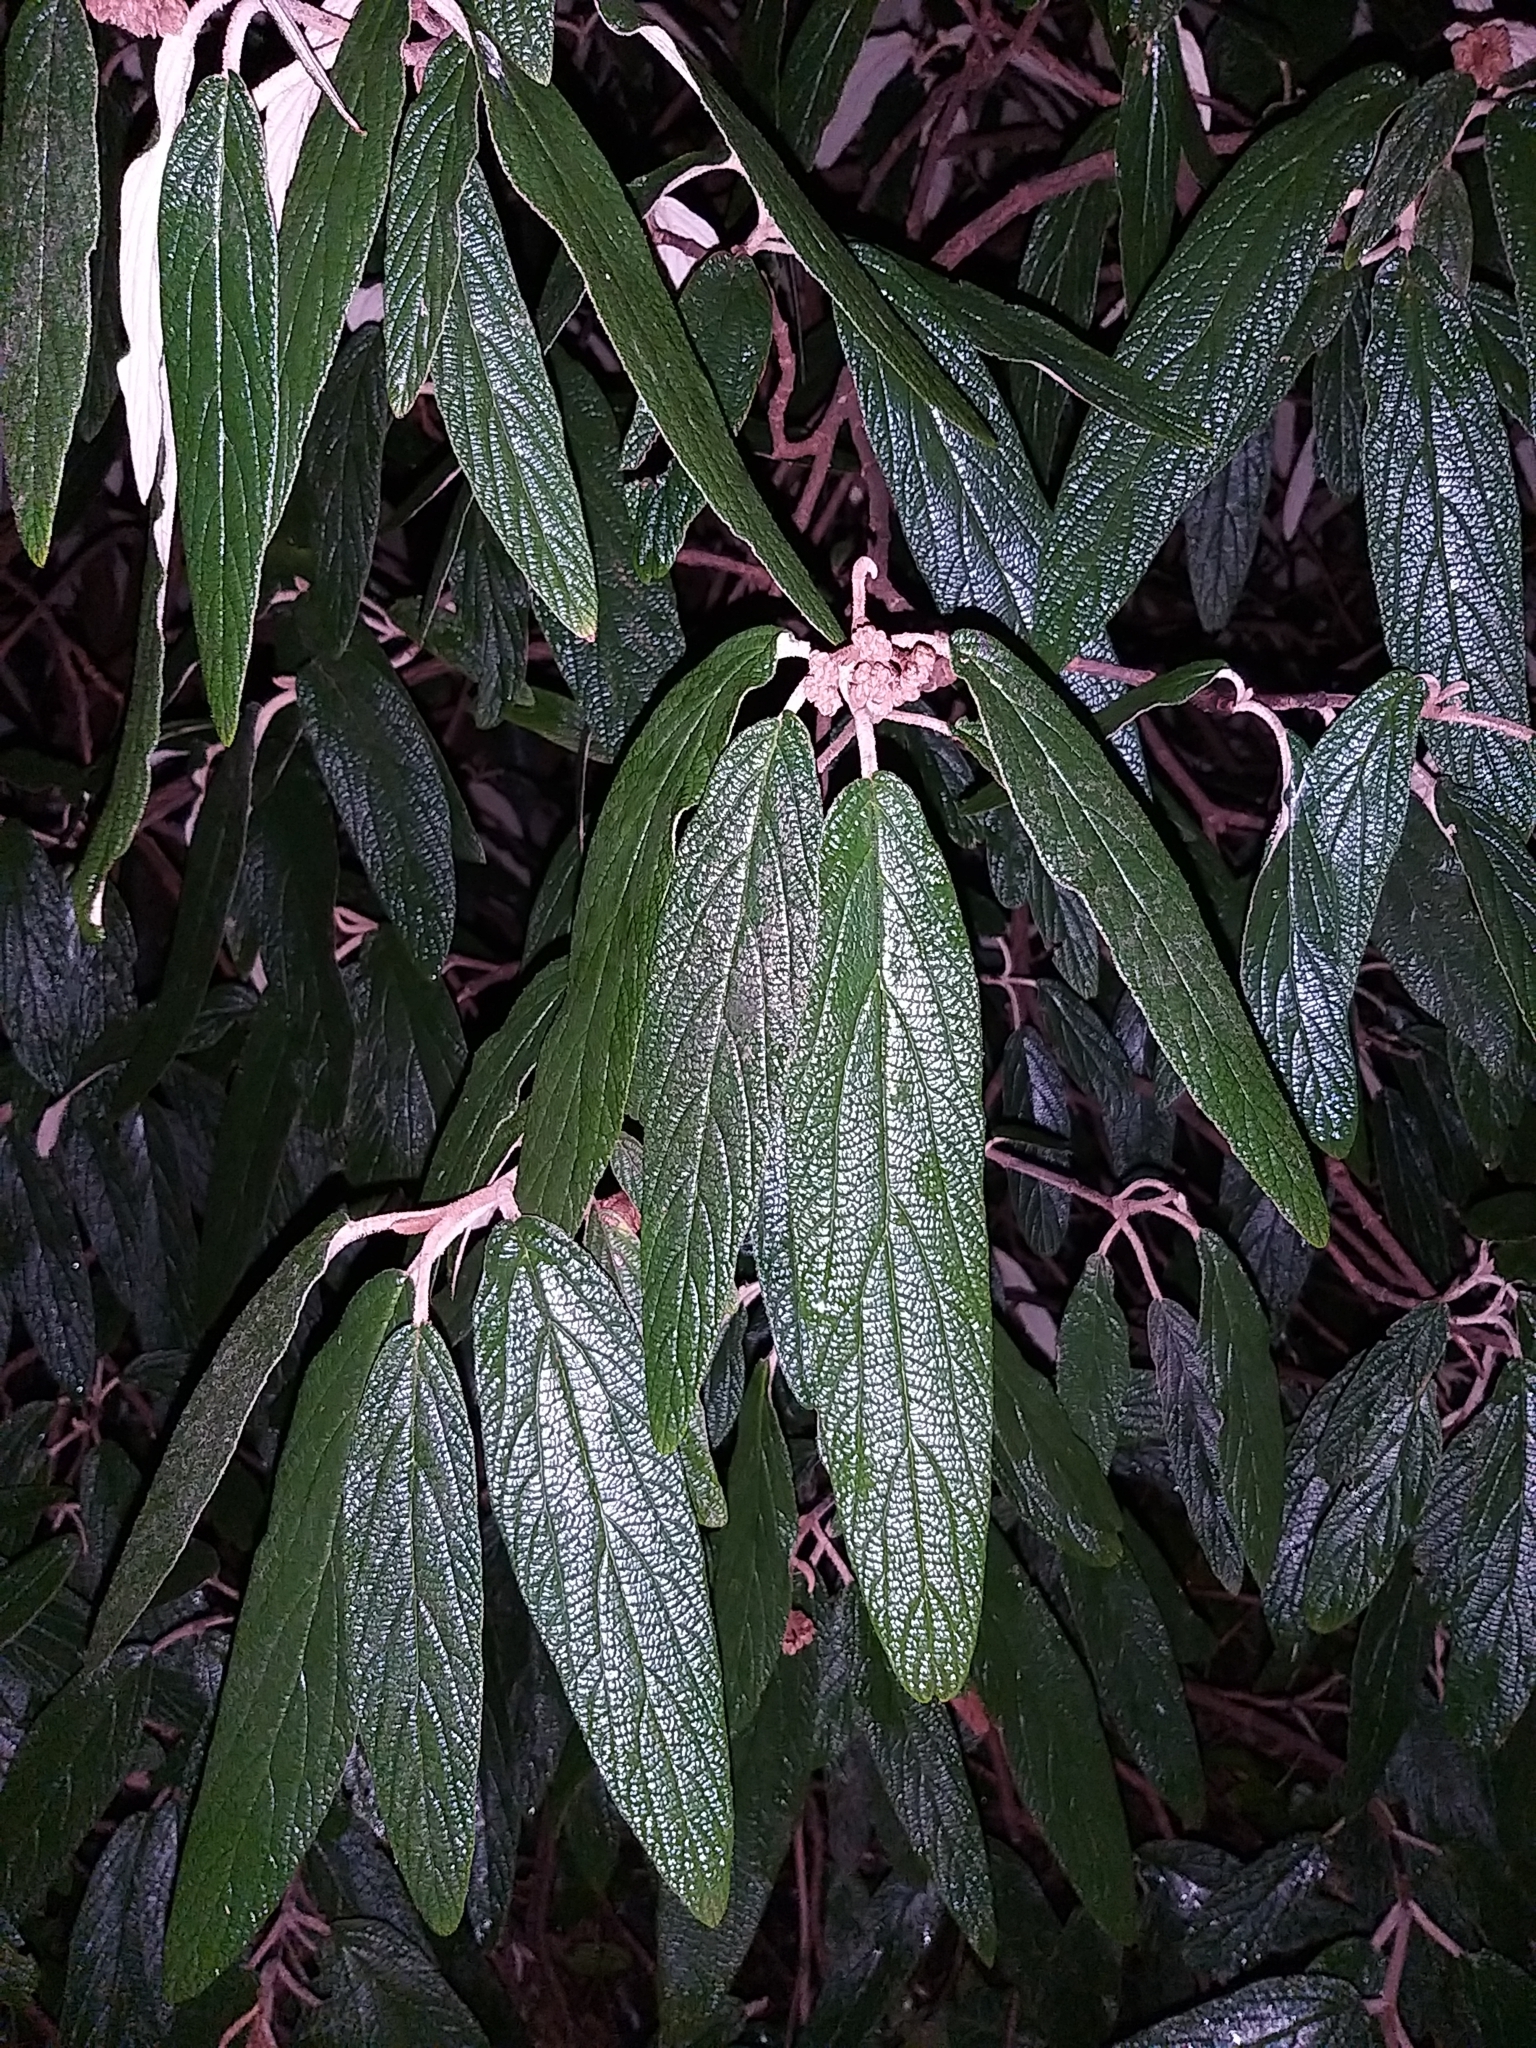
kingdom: Plantae
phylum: Tracheophyta
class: Magnoliopsida
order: Dipsacales
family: Viburnaceae
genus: Viburnum
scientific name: Viburnum rhytidophyllum
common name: Wrinkled viburnum
